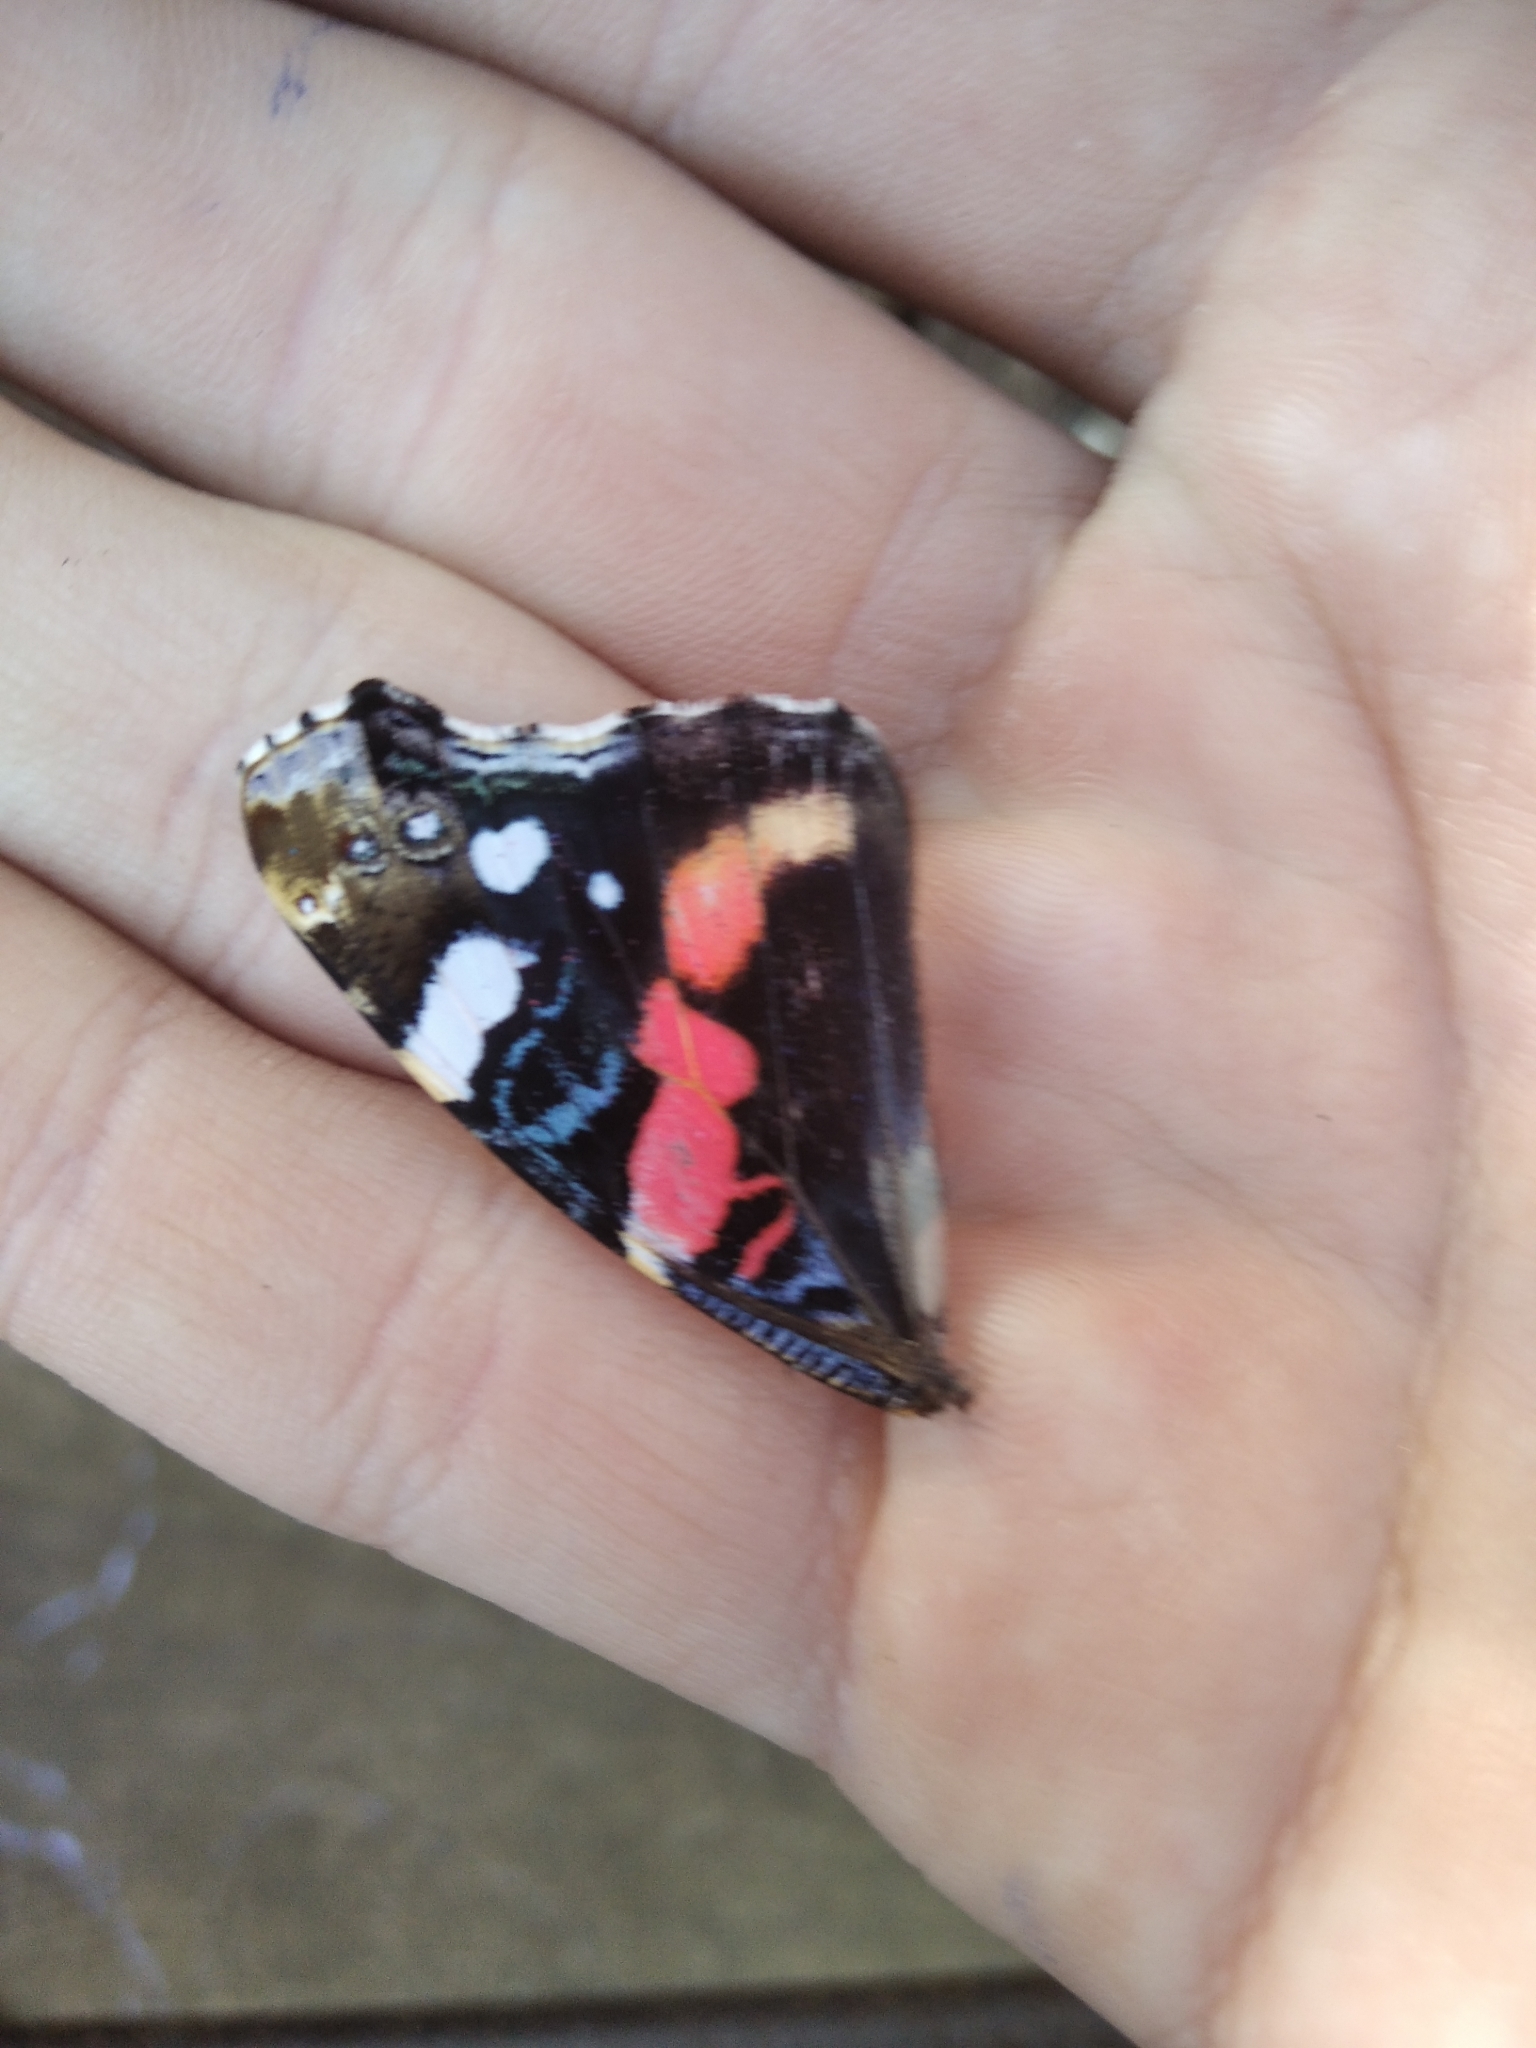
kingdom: Animalia
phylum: Arthropoda
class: Insecta
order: Lepidoptera
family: Nymphalidae
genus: Vanessa
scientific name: Vanessa atalanta
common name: Red admiral
